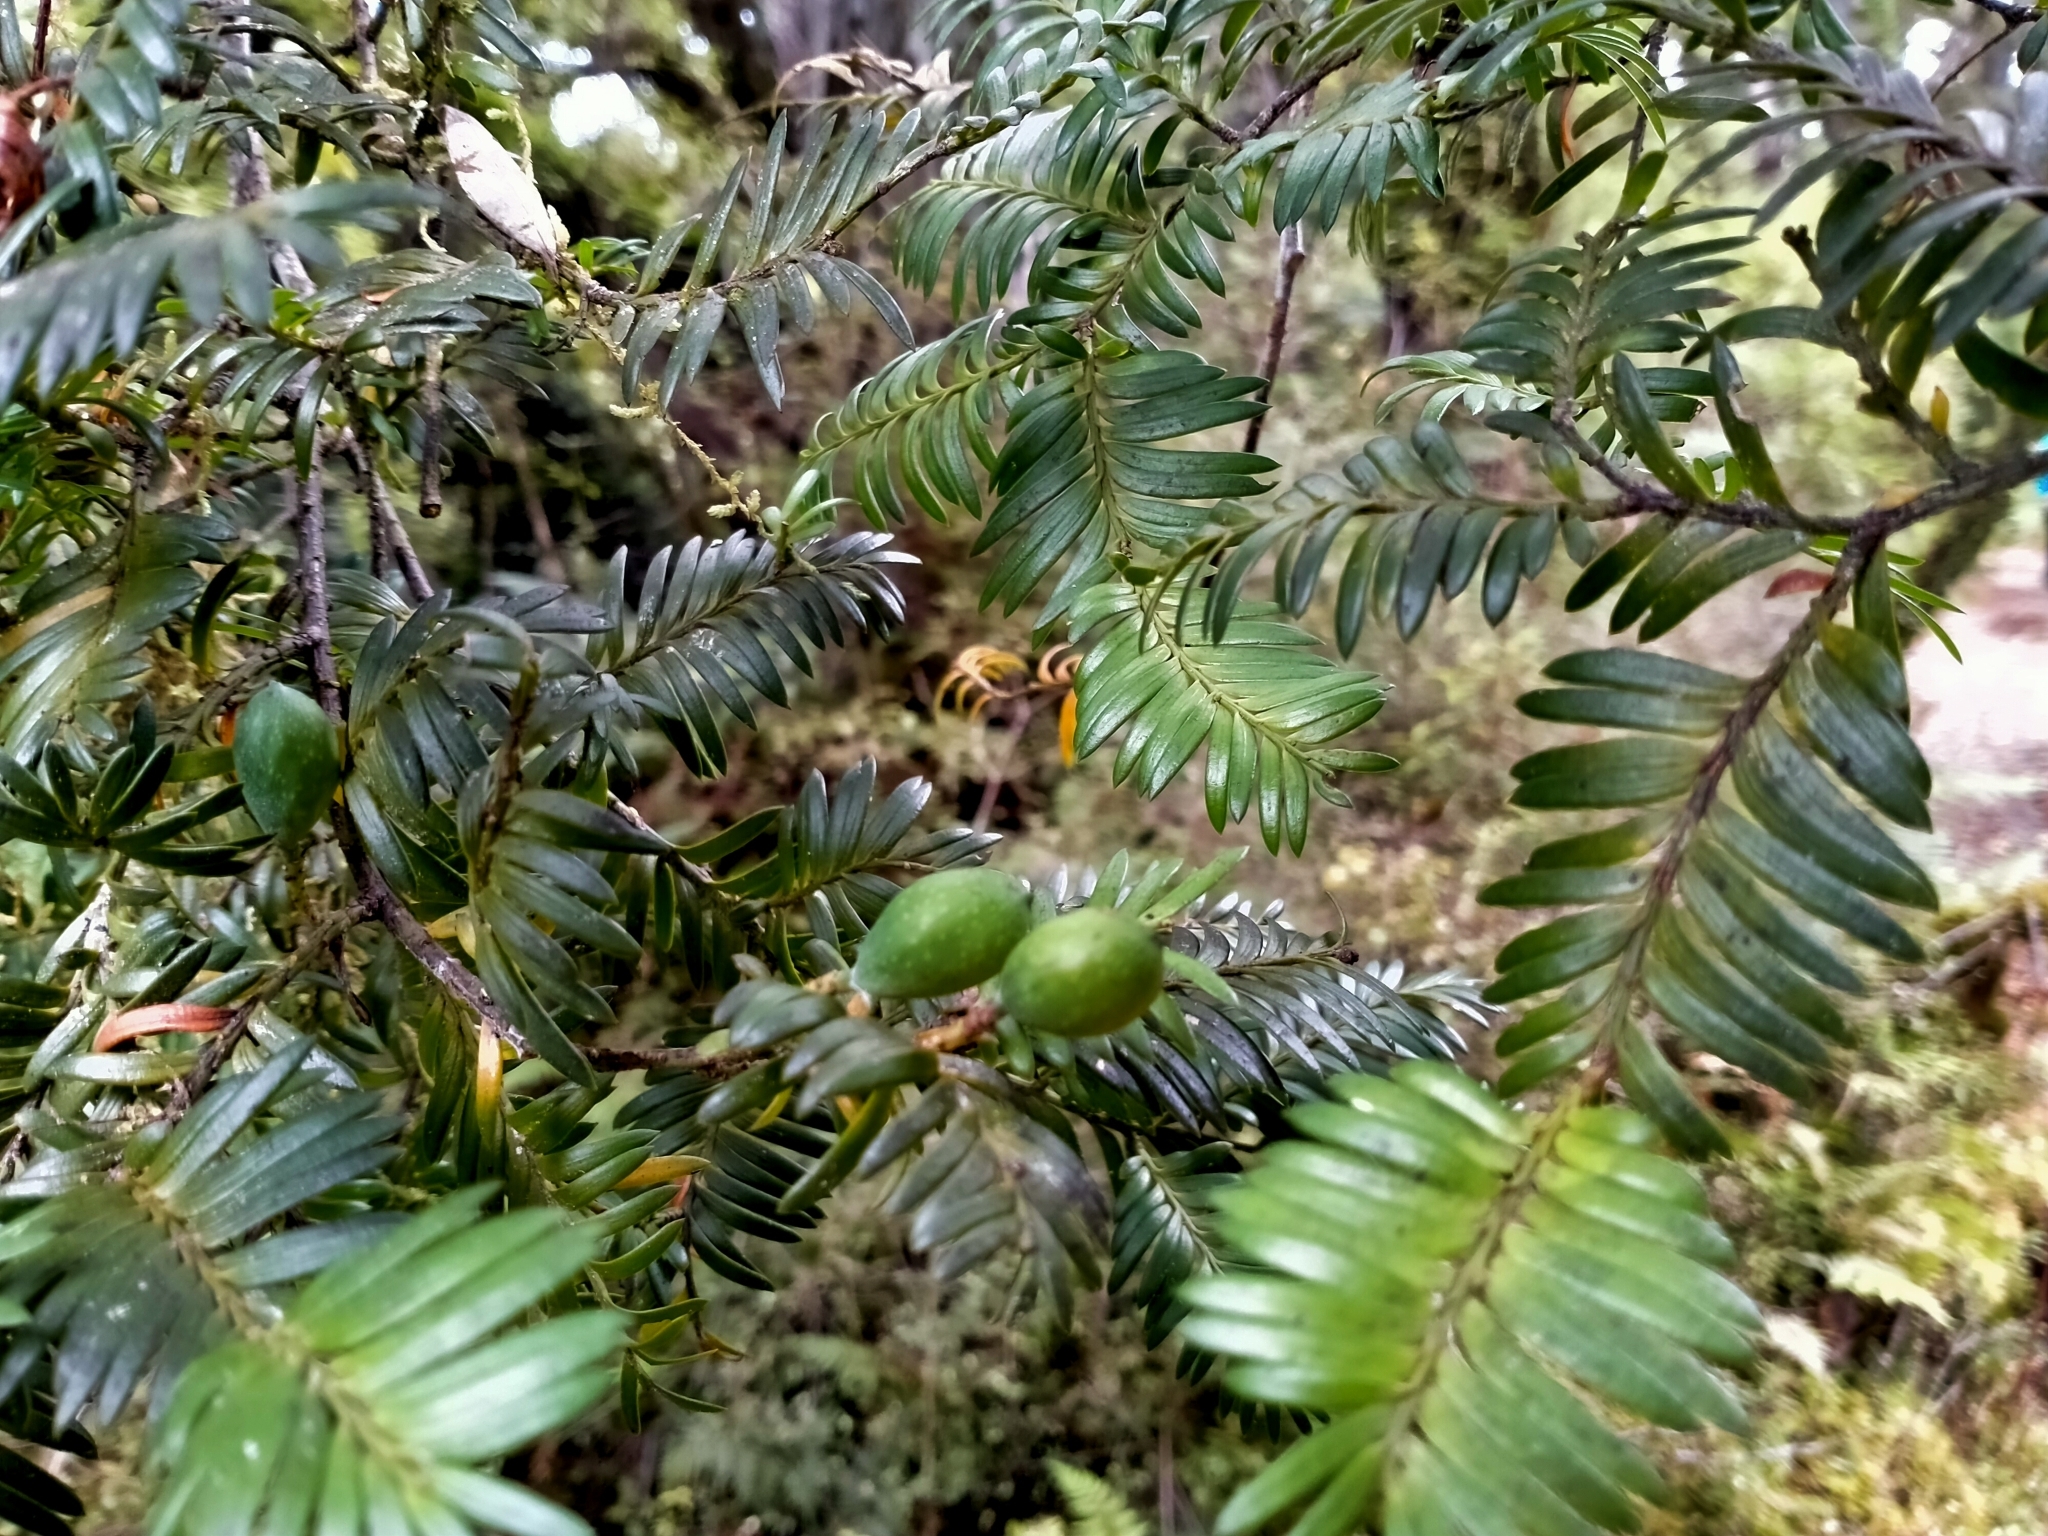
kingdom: Plantae
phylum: Tracheophyta
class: Pinopsida
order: Pinales
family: Podocarpaceae
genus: Prumnopitys
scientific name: Prumnopitys ferruginea
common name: Brown pine
